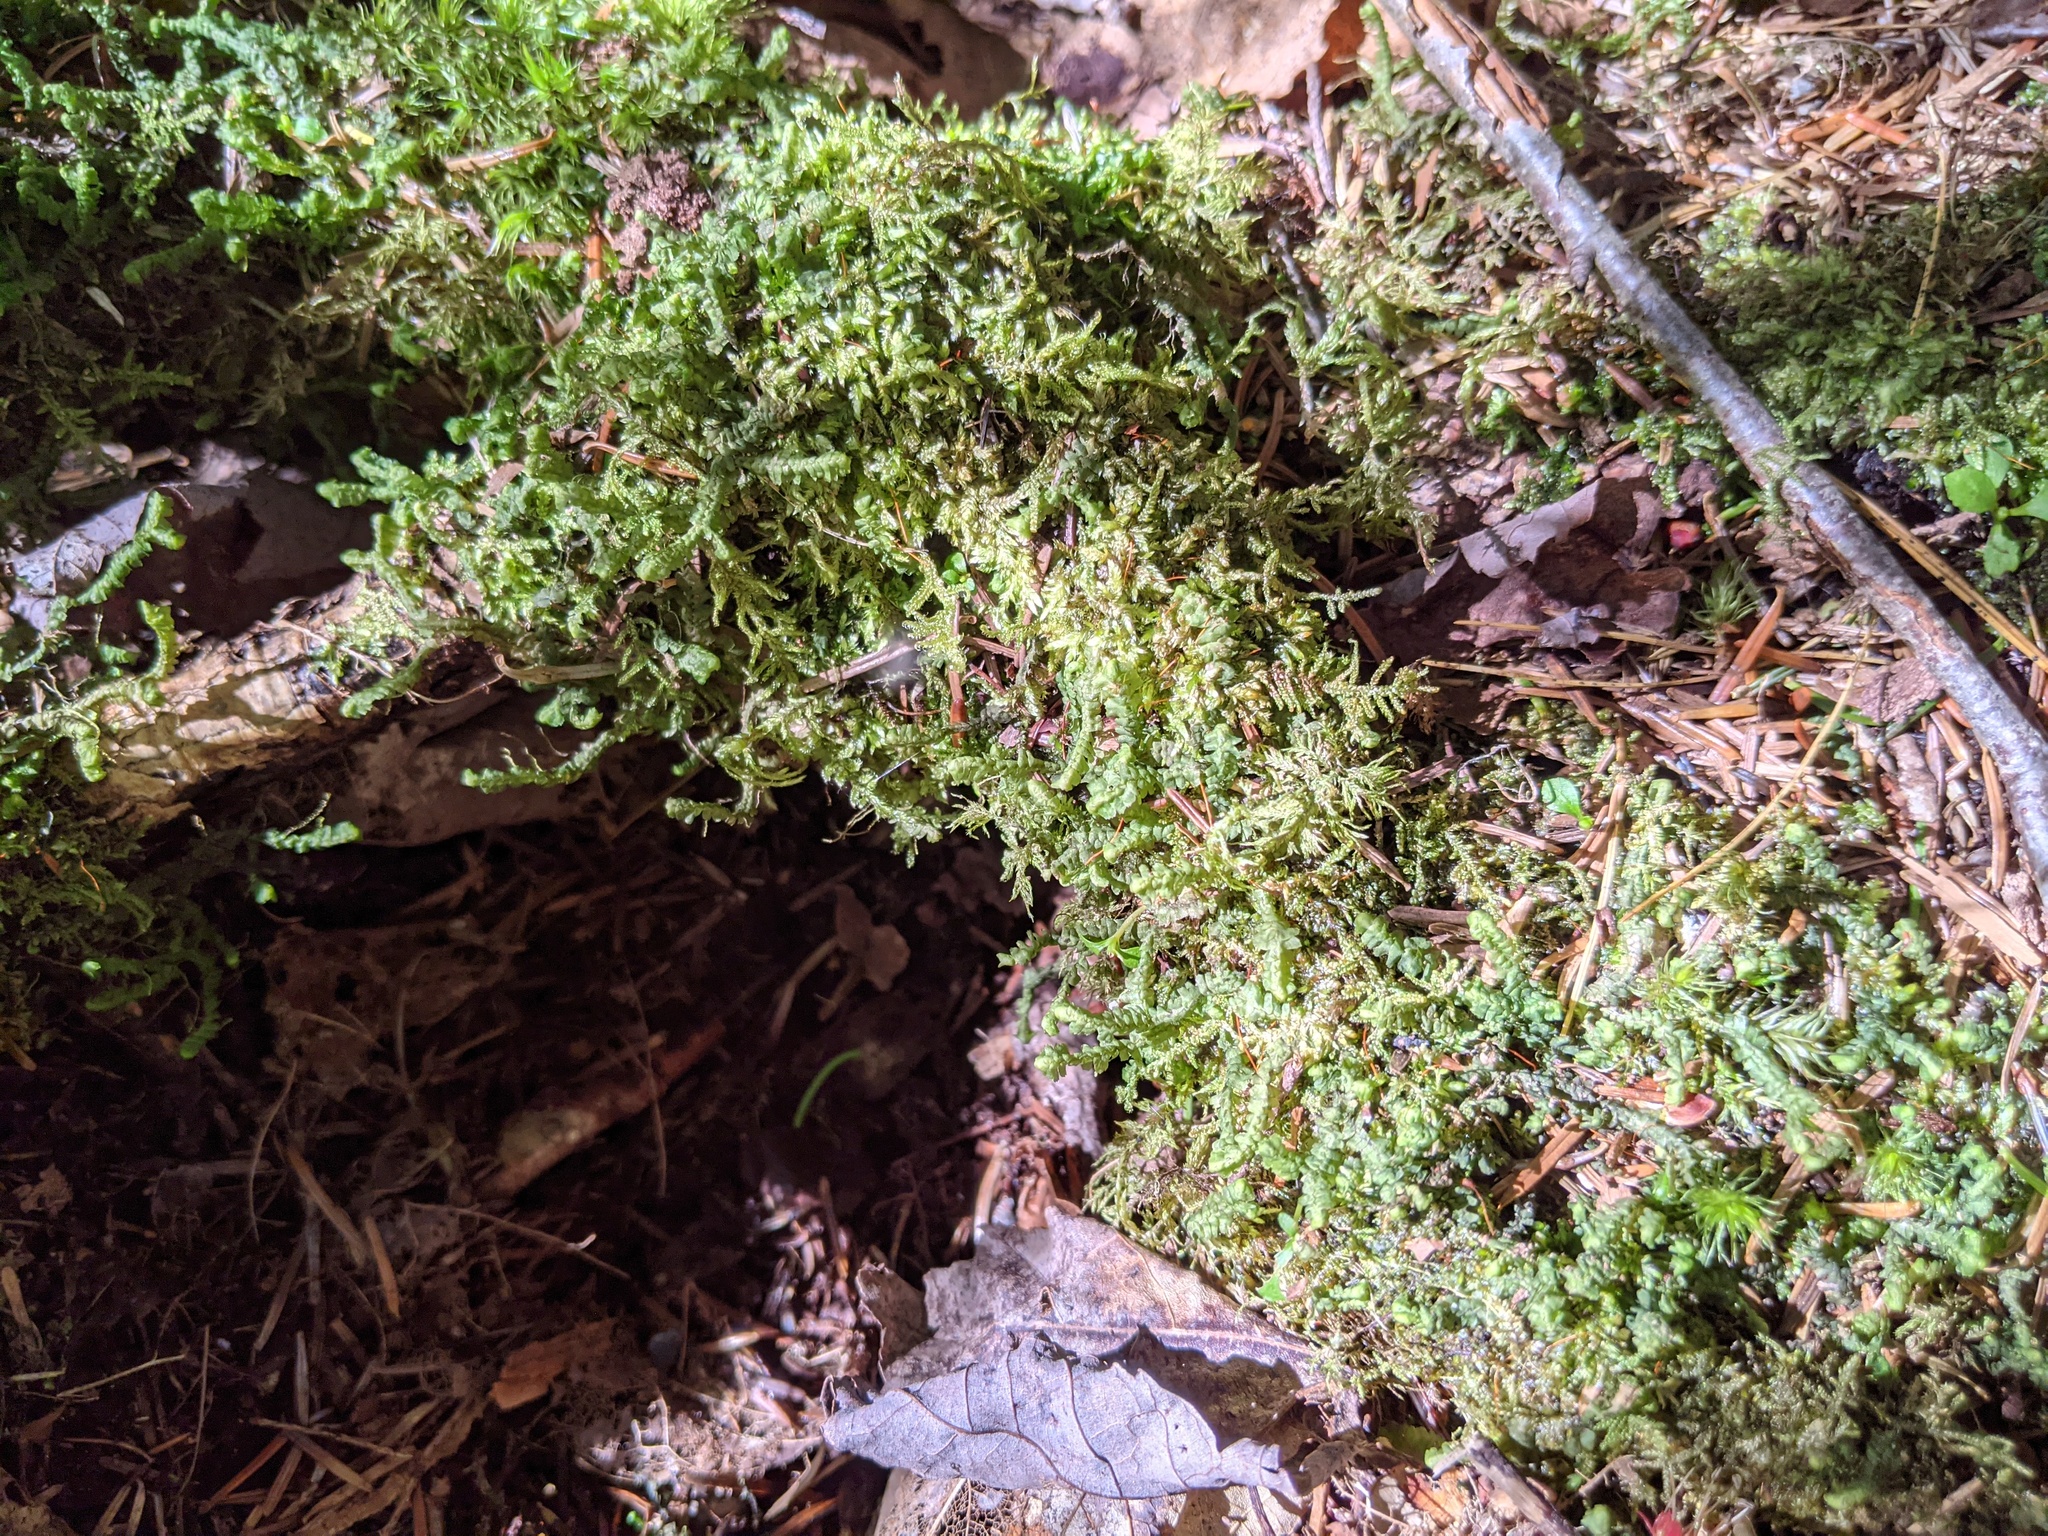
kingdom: Plantae
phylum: Marchantiophyta
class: Jungermanniopsida
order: Jungermanniales
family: Lepidoziaceae
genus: Bazzania
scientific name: Bazzania trilobata
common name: Three-lobed whipwort
